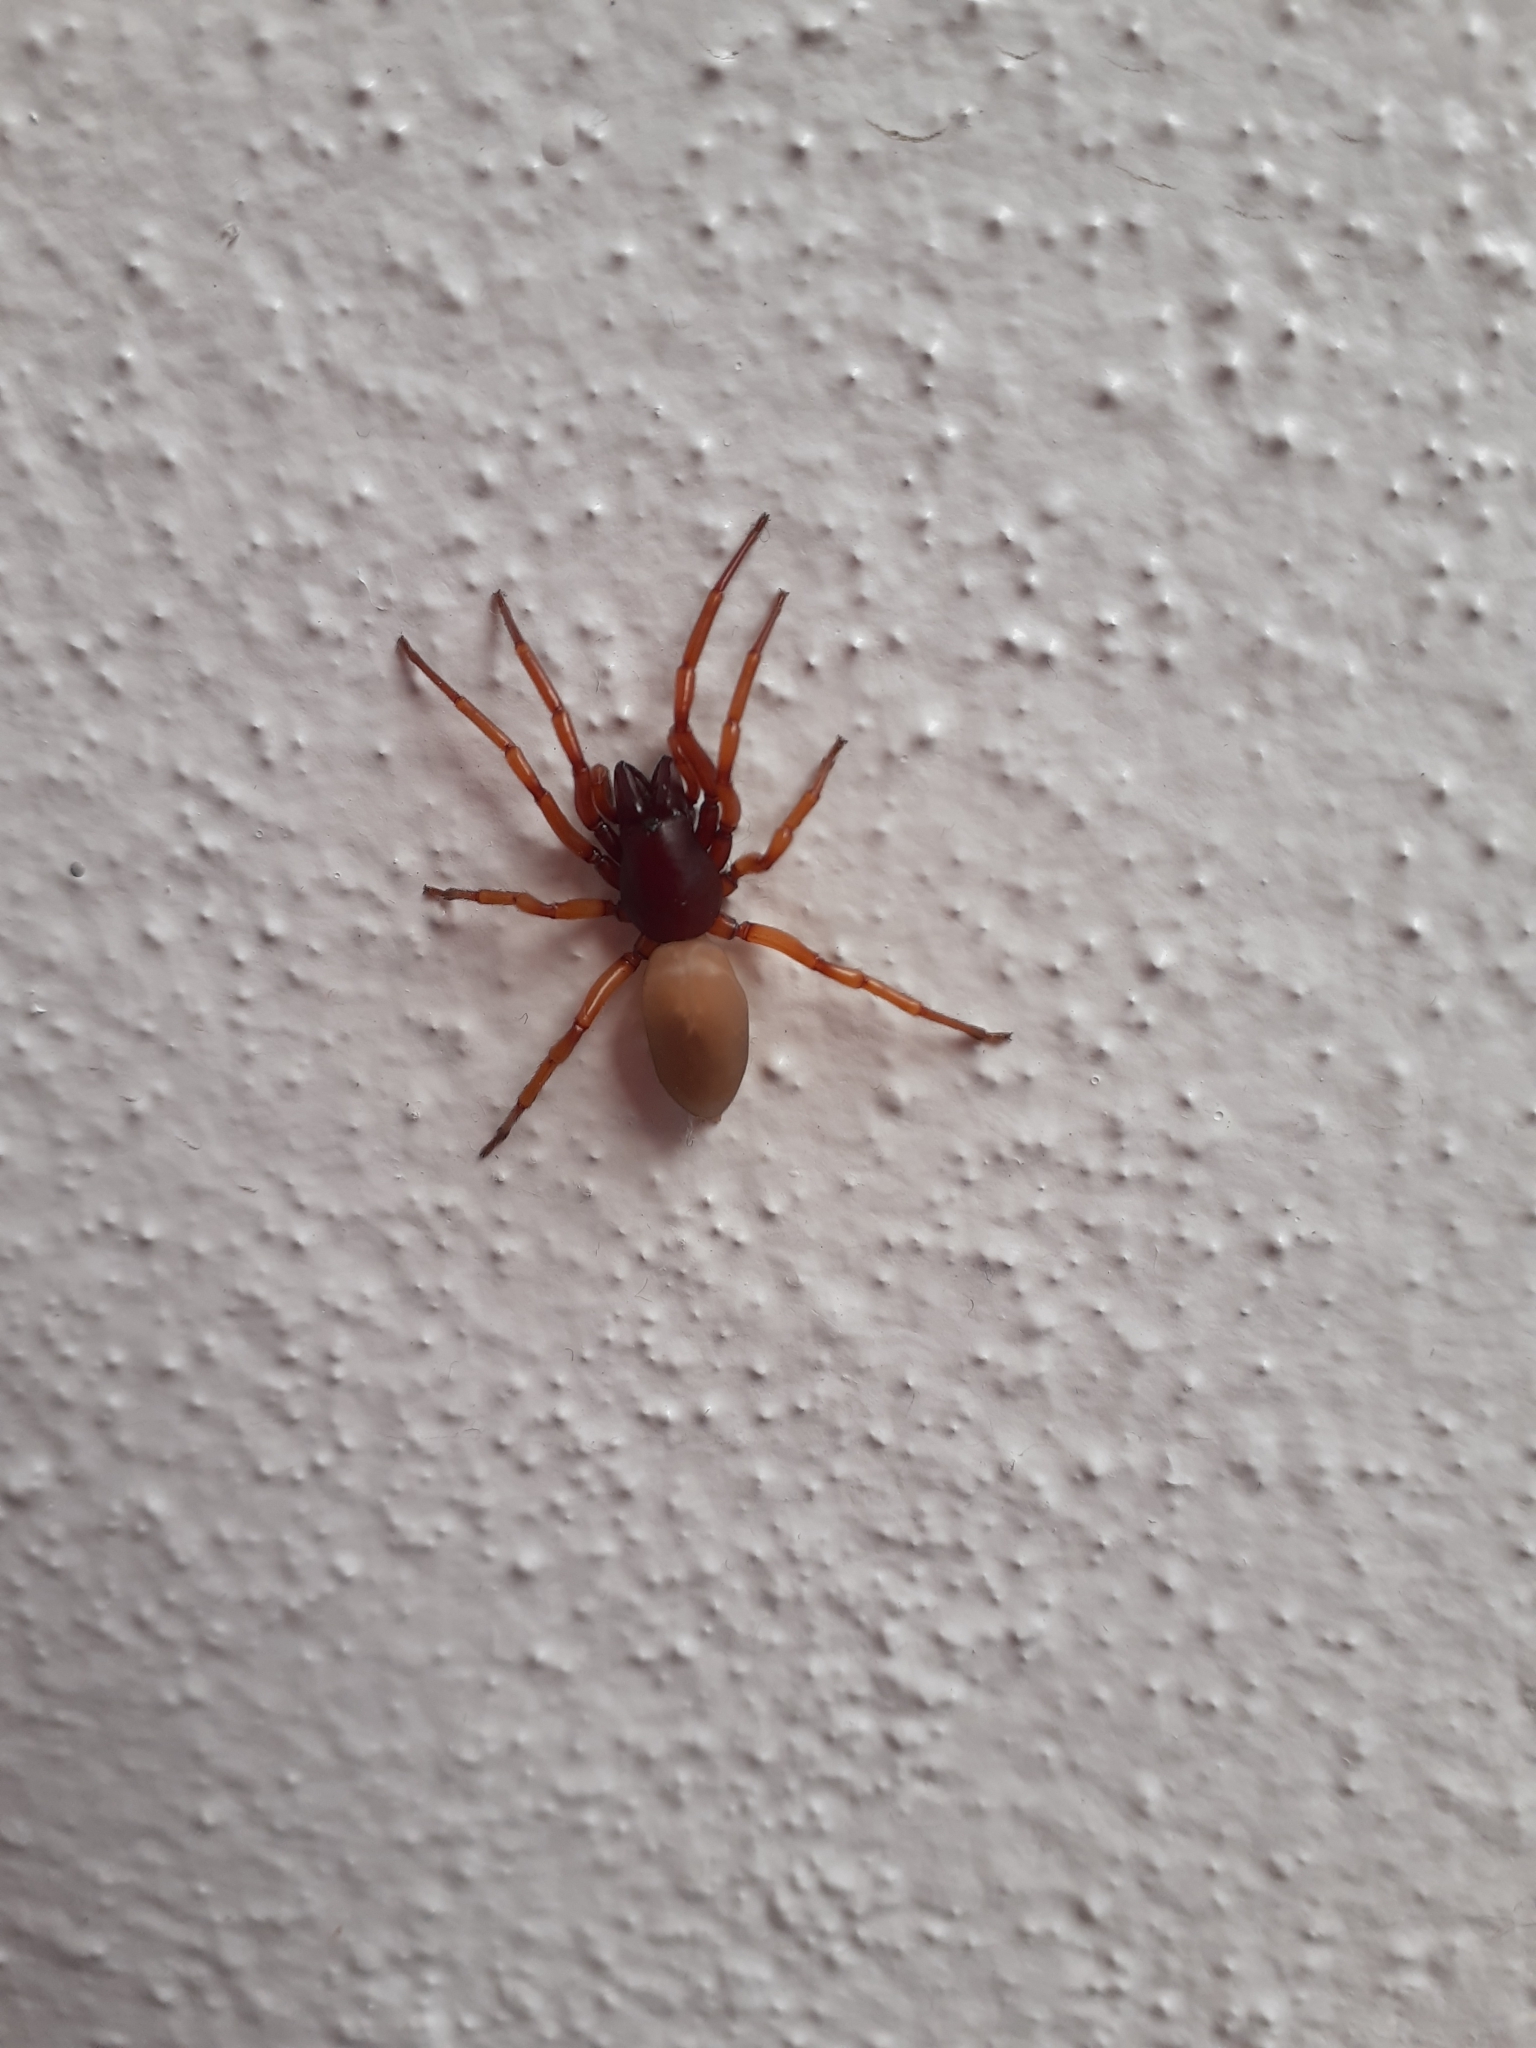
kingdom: Animalia
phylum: Arthropoda
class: Arachnida
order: Araneae
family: Dysderidae
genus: Dysdera
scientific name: Dysdera crocata
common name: Woodlouse spider
